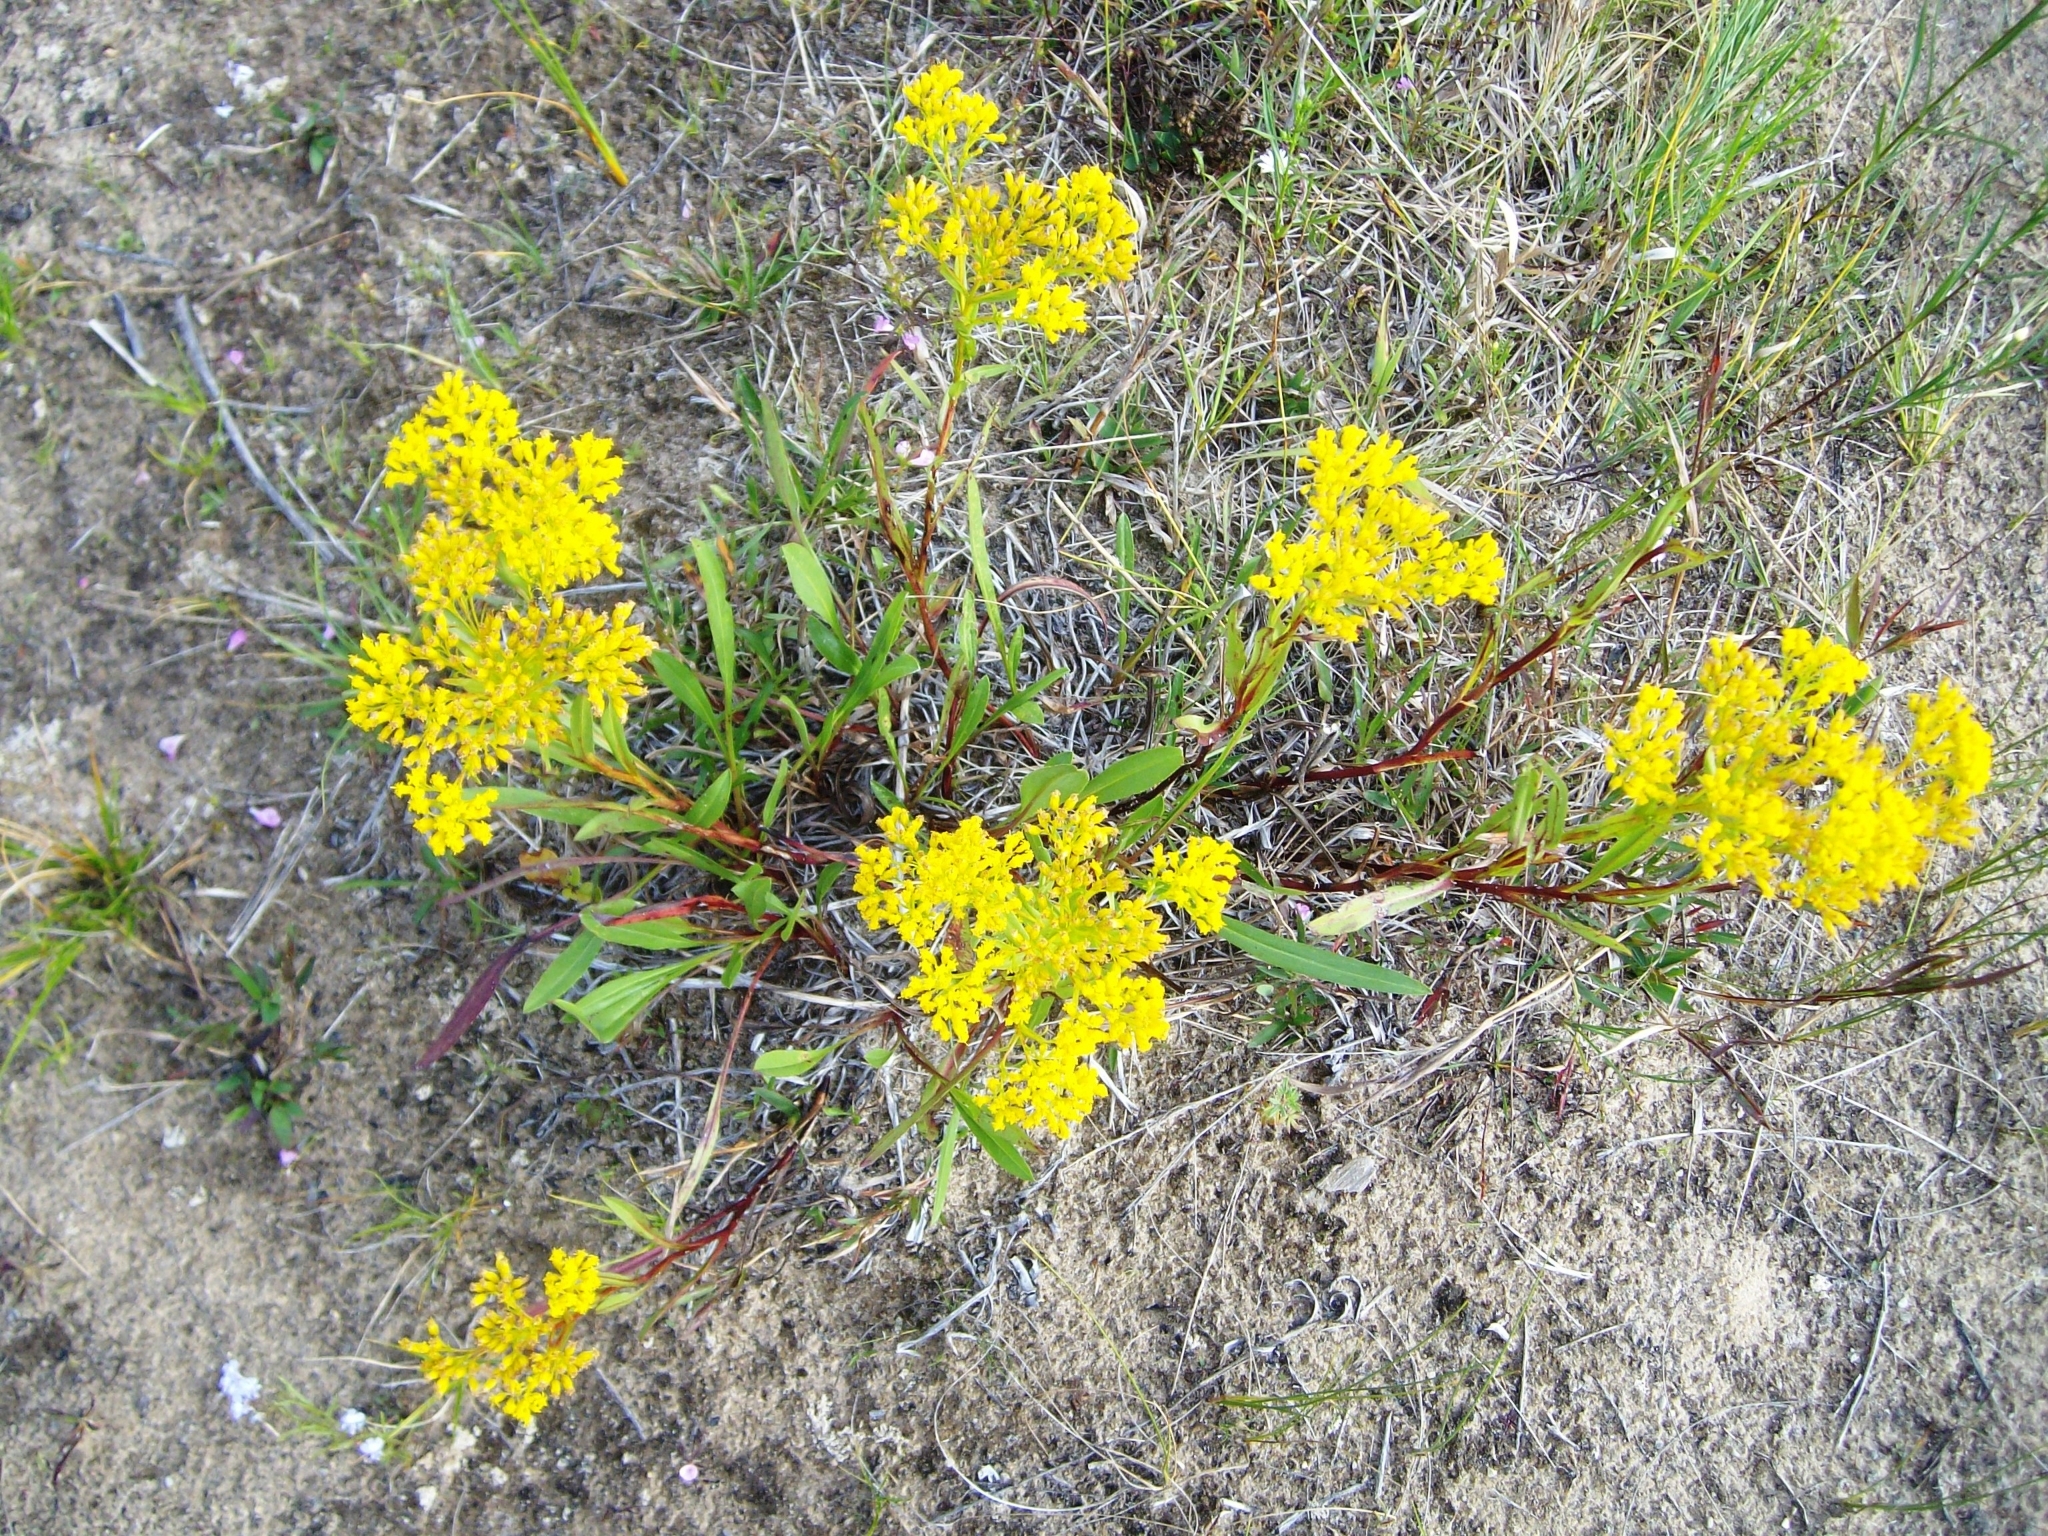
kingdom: Plantae
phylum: Tracheophyta
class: Magnoliopsida
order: Asterales
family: Asteraceae
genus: Solidago
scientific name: Solidago ohioensis
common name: Ohio goldenrod
